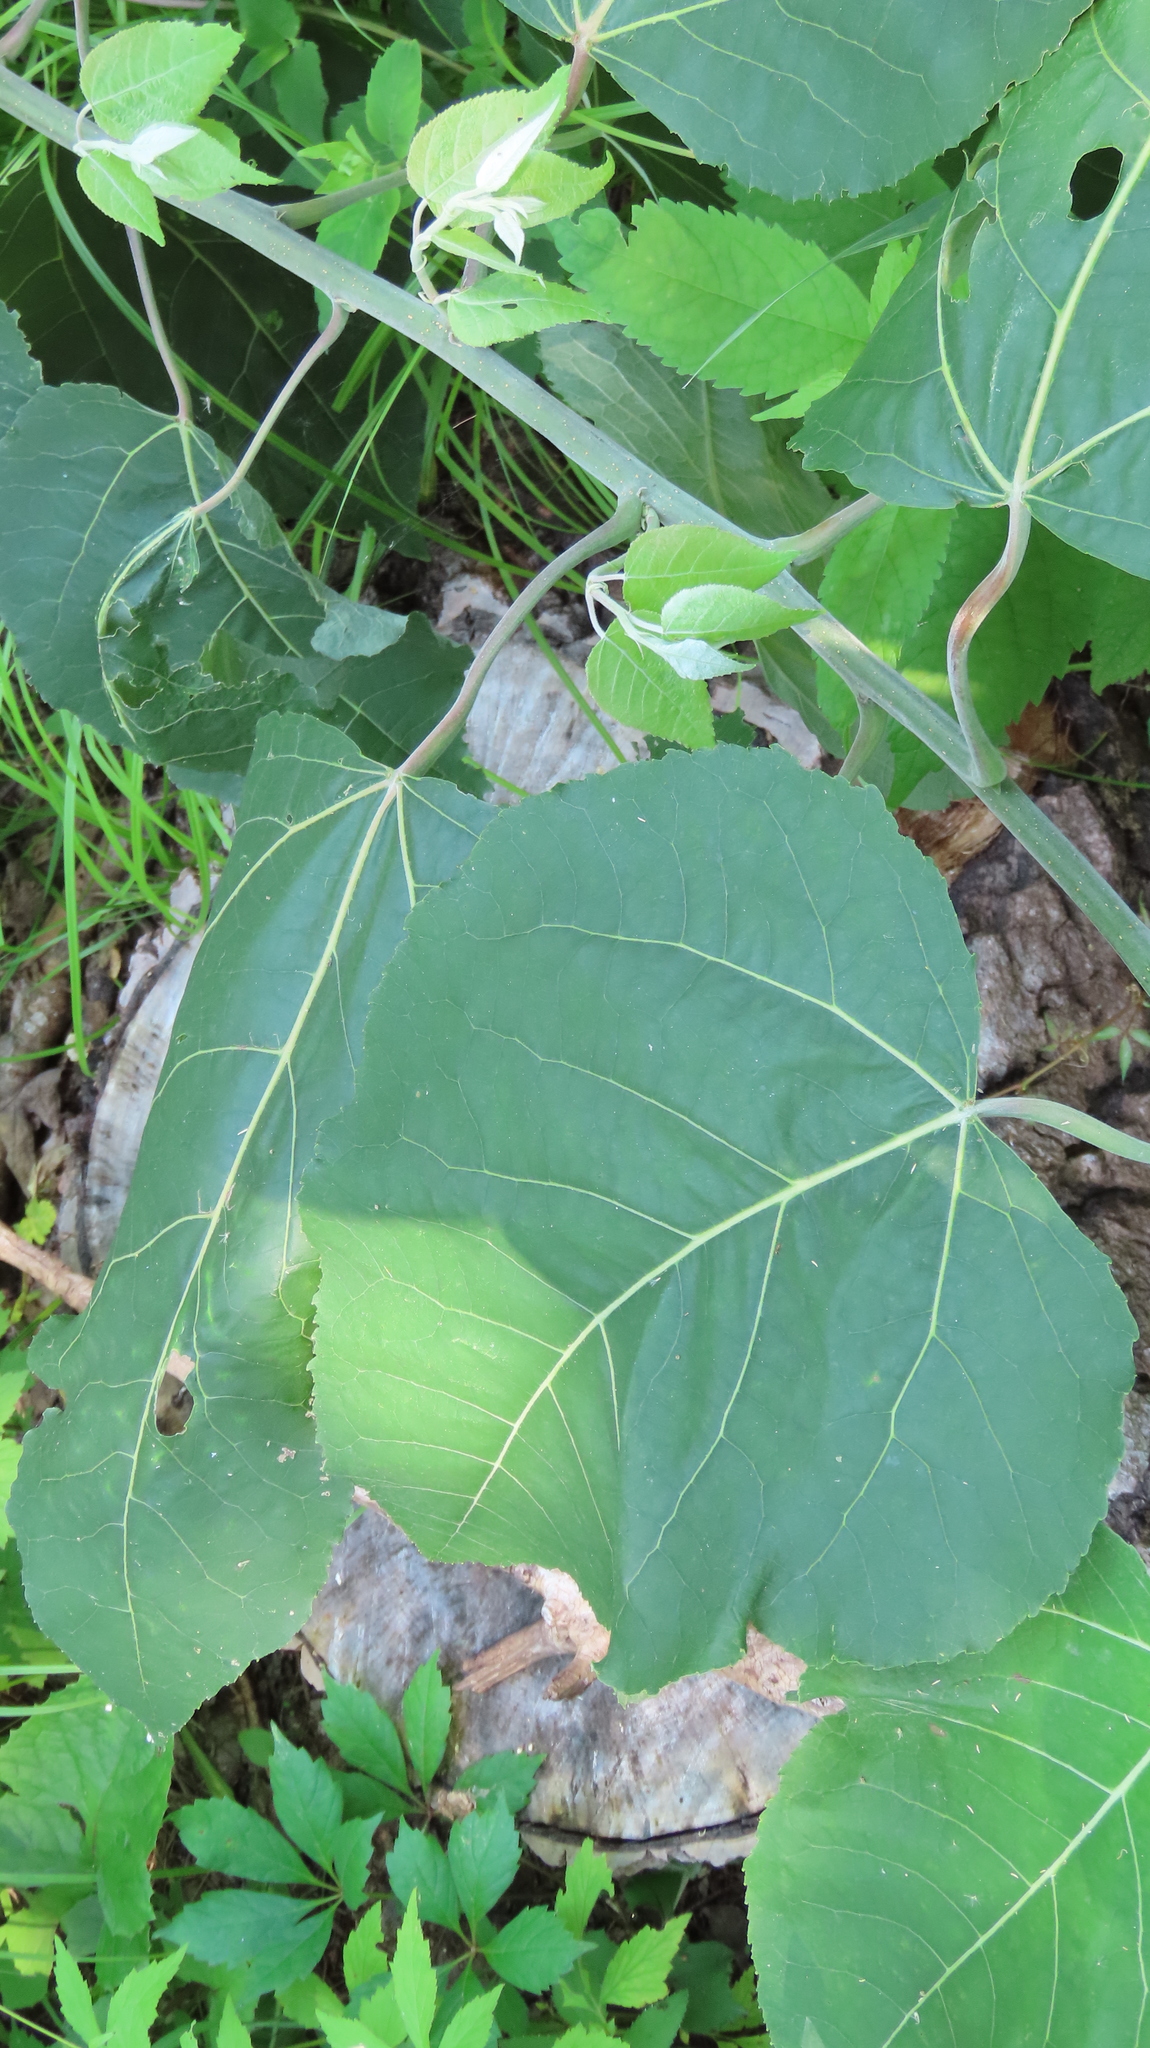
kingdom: Plantae
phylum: Tracheophyta
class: Magnoliopsida
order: Malpighiales
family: Salicaceae
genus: Populus
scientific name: Populus grandidentata
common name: Bigtooth aspen
